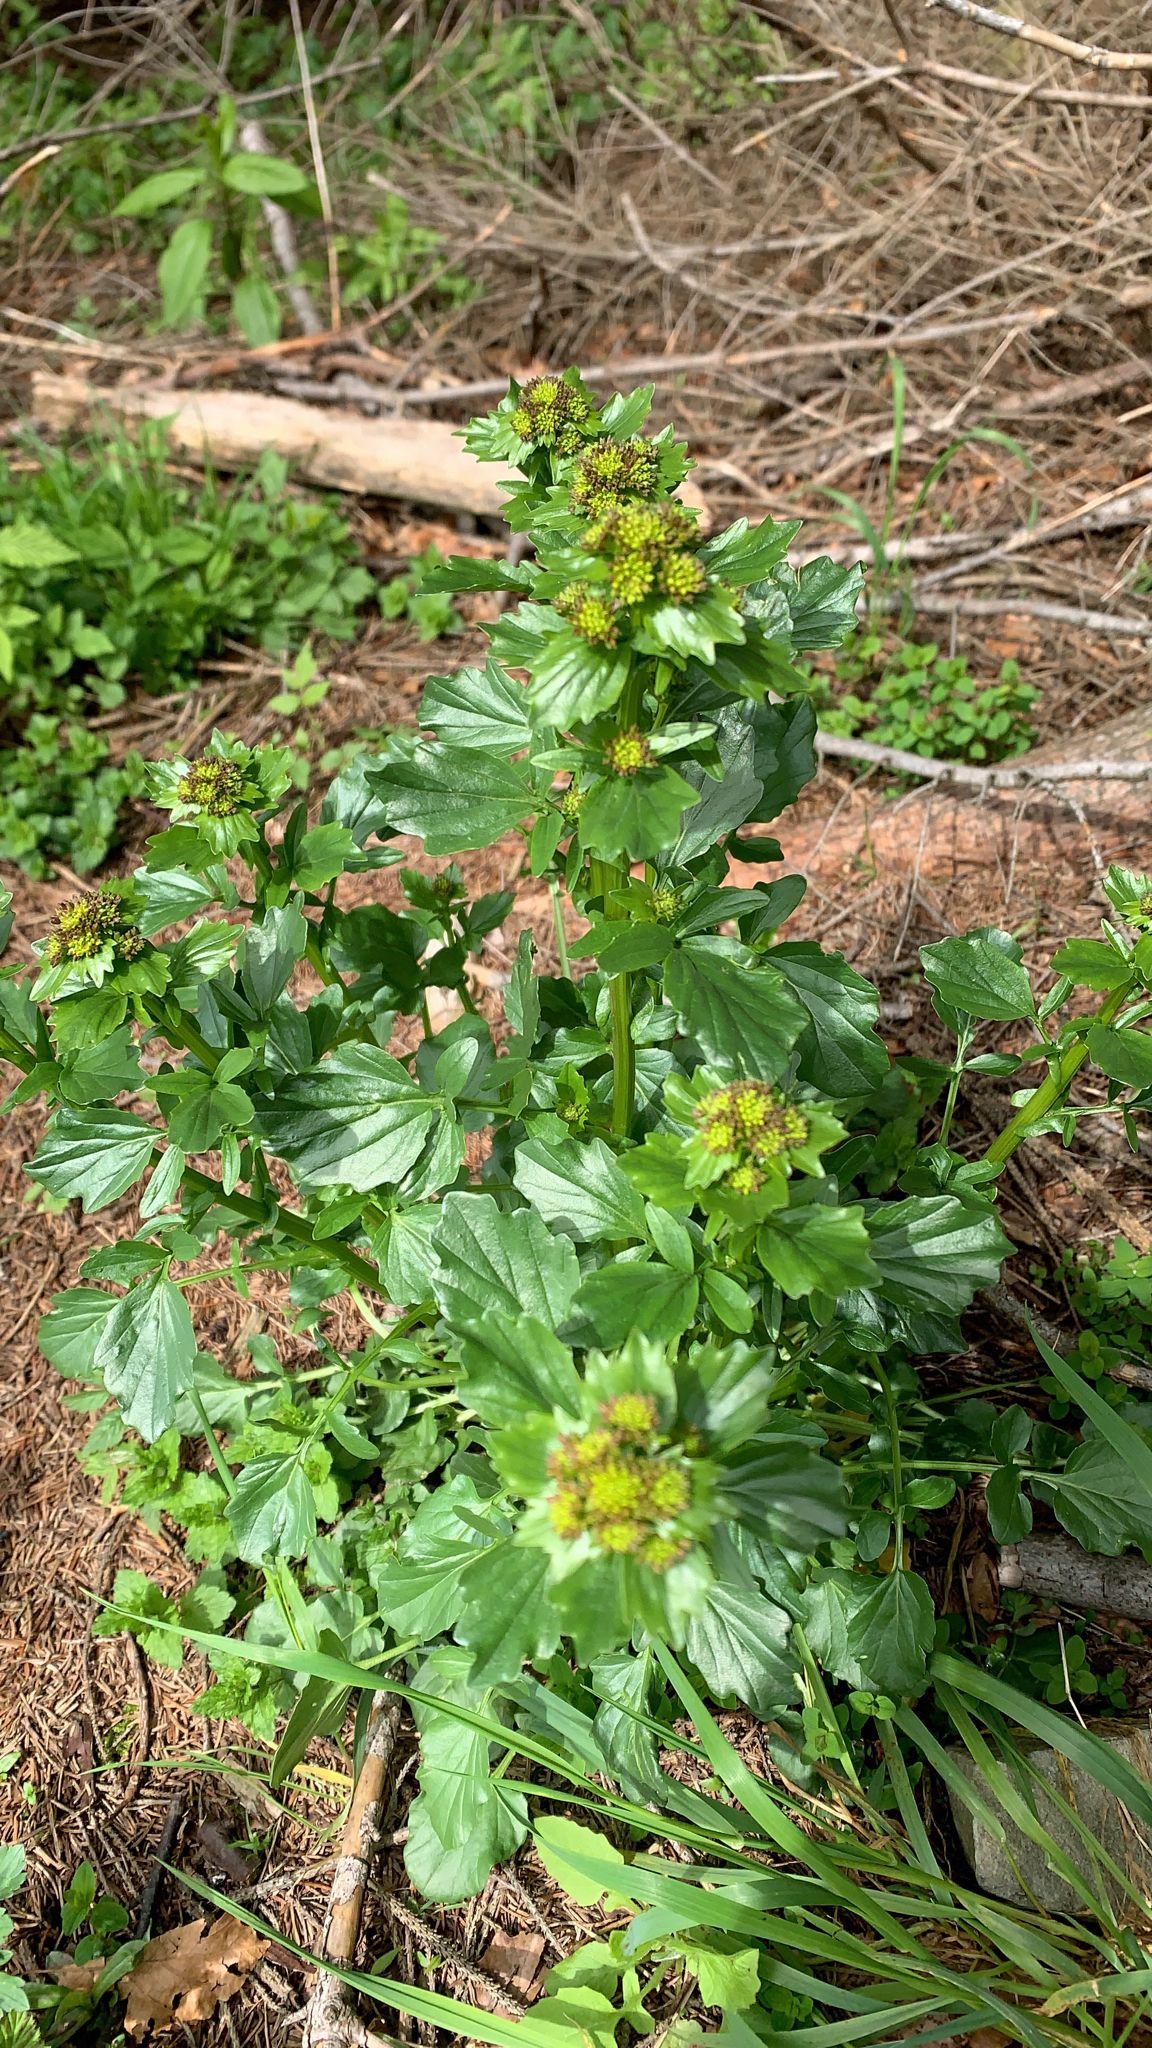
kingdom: Plantae
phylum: Tracheophyta
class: Magnoliopsida
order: Brassicales
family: Brassicaceae
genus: Barbarea
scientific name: Barbarea vulgaris
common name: Cressy-greens
